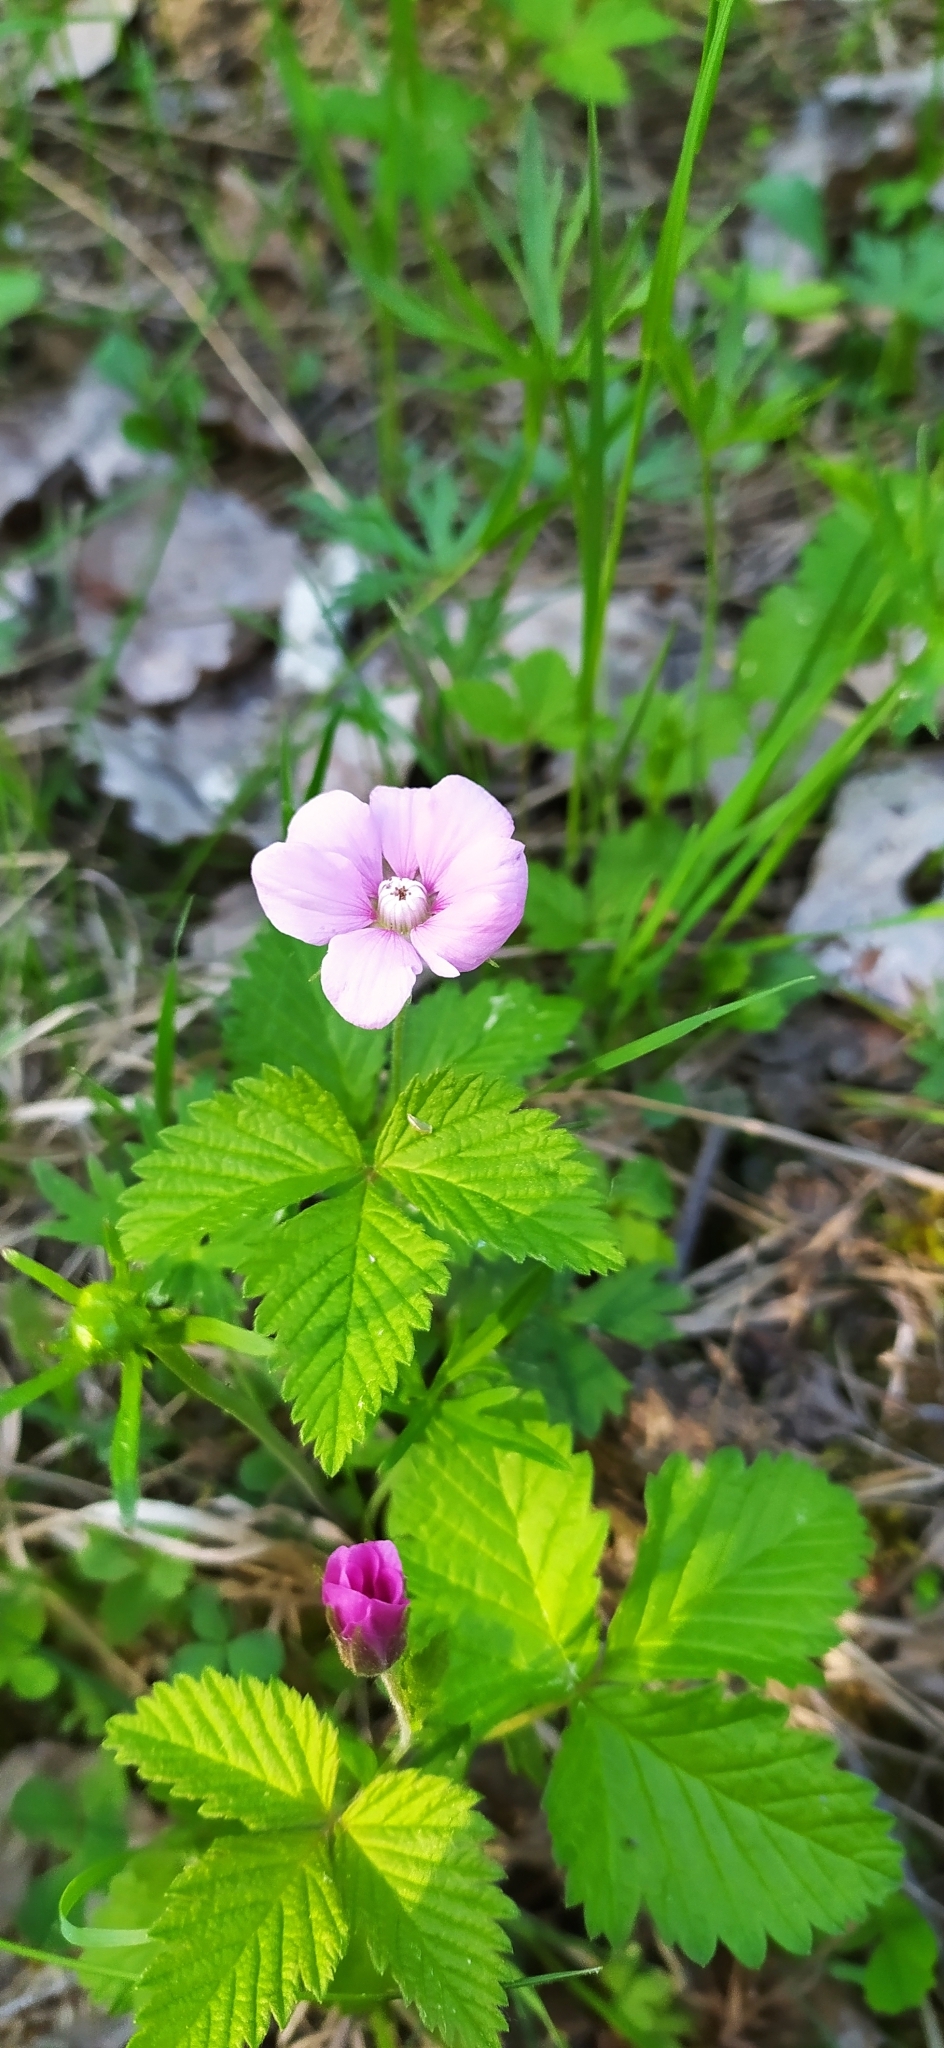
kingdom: Plantae
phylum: Tracheophyta
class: Magnoliopsida
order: Rosales
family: Rosaceae
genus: Rubus
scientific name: Rubus arcticus
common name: Arctic bramble
